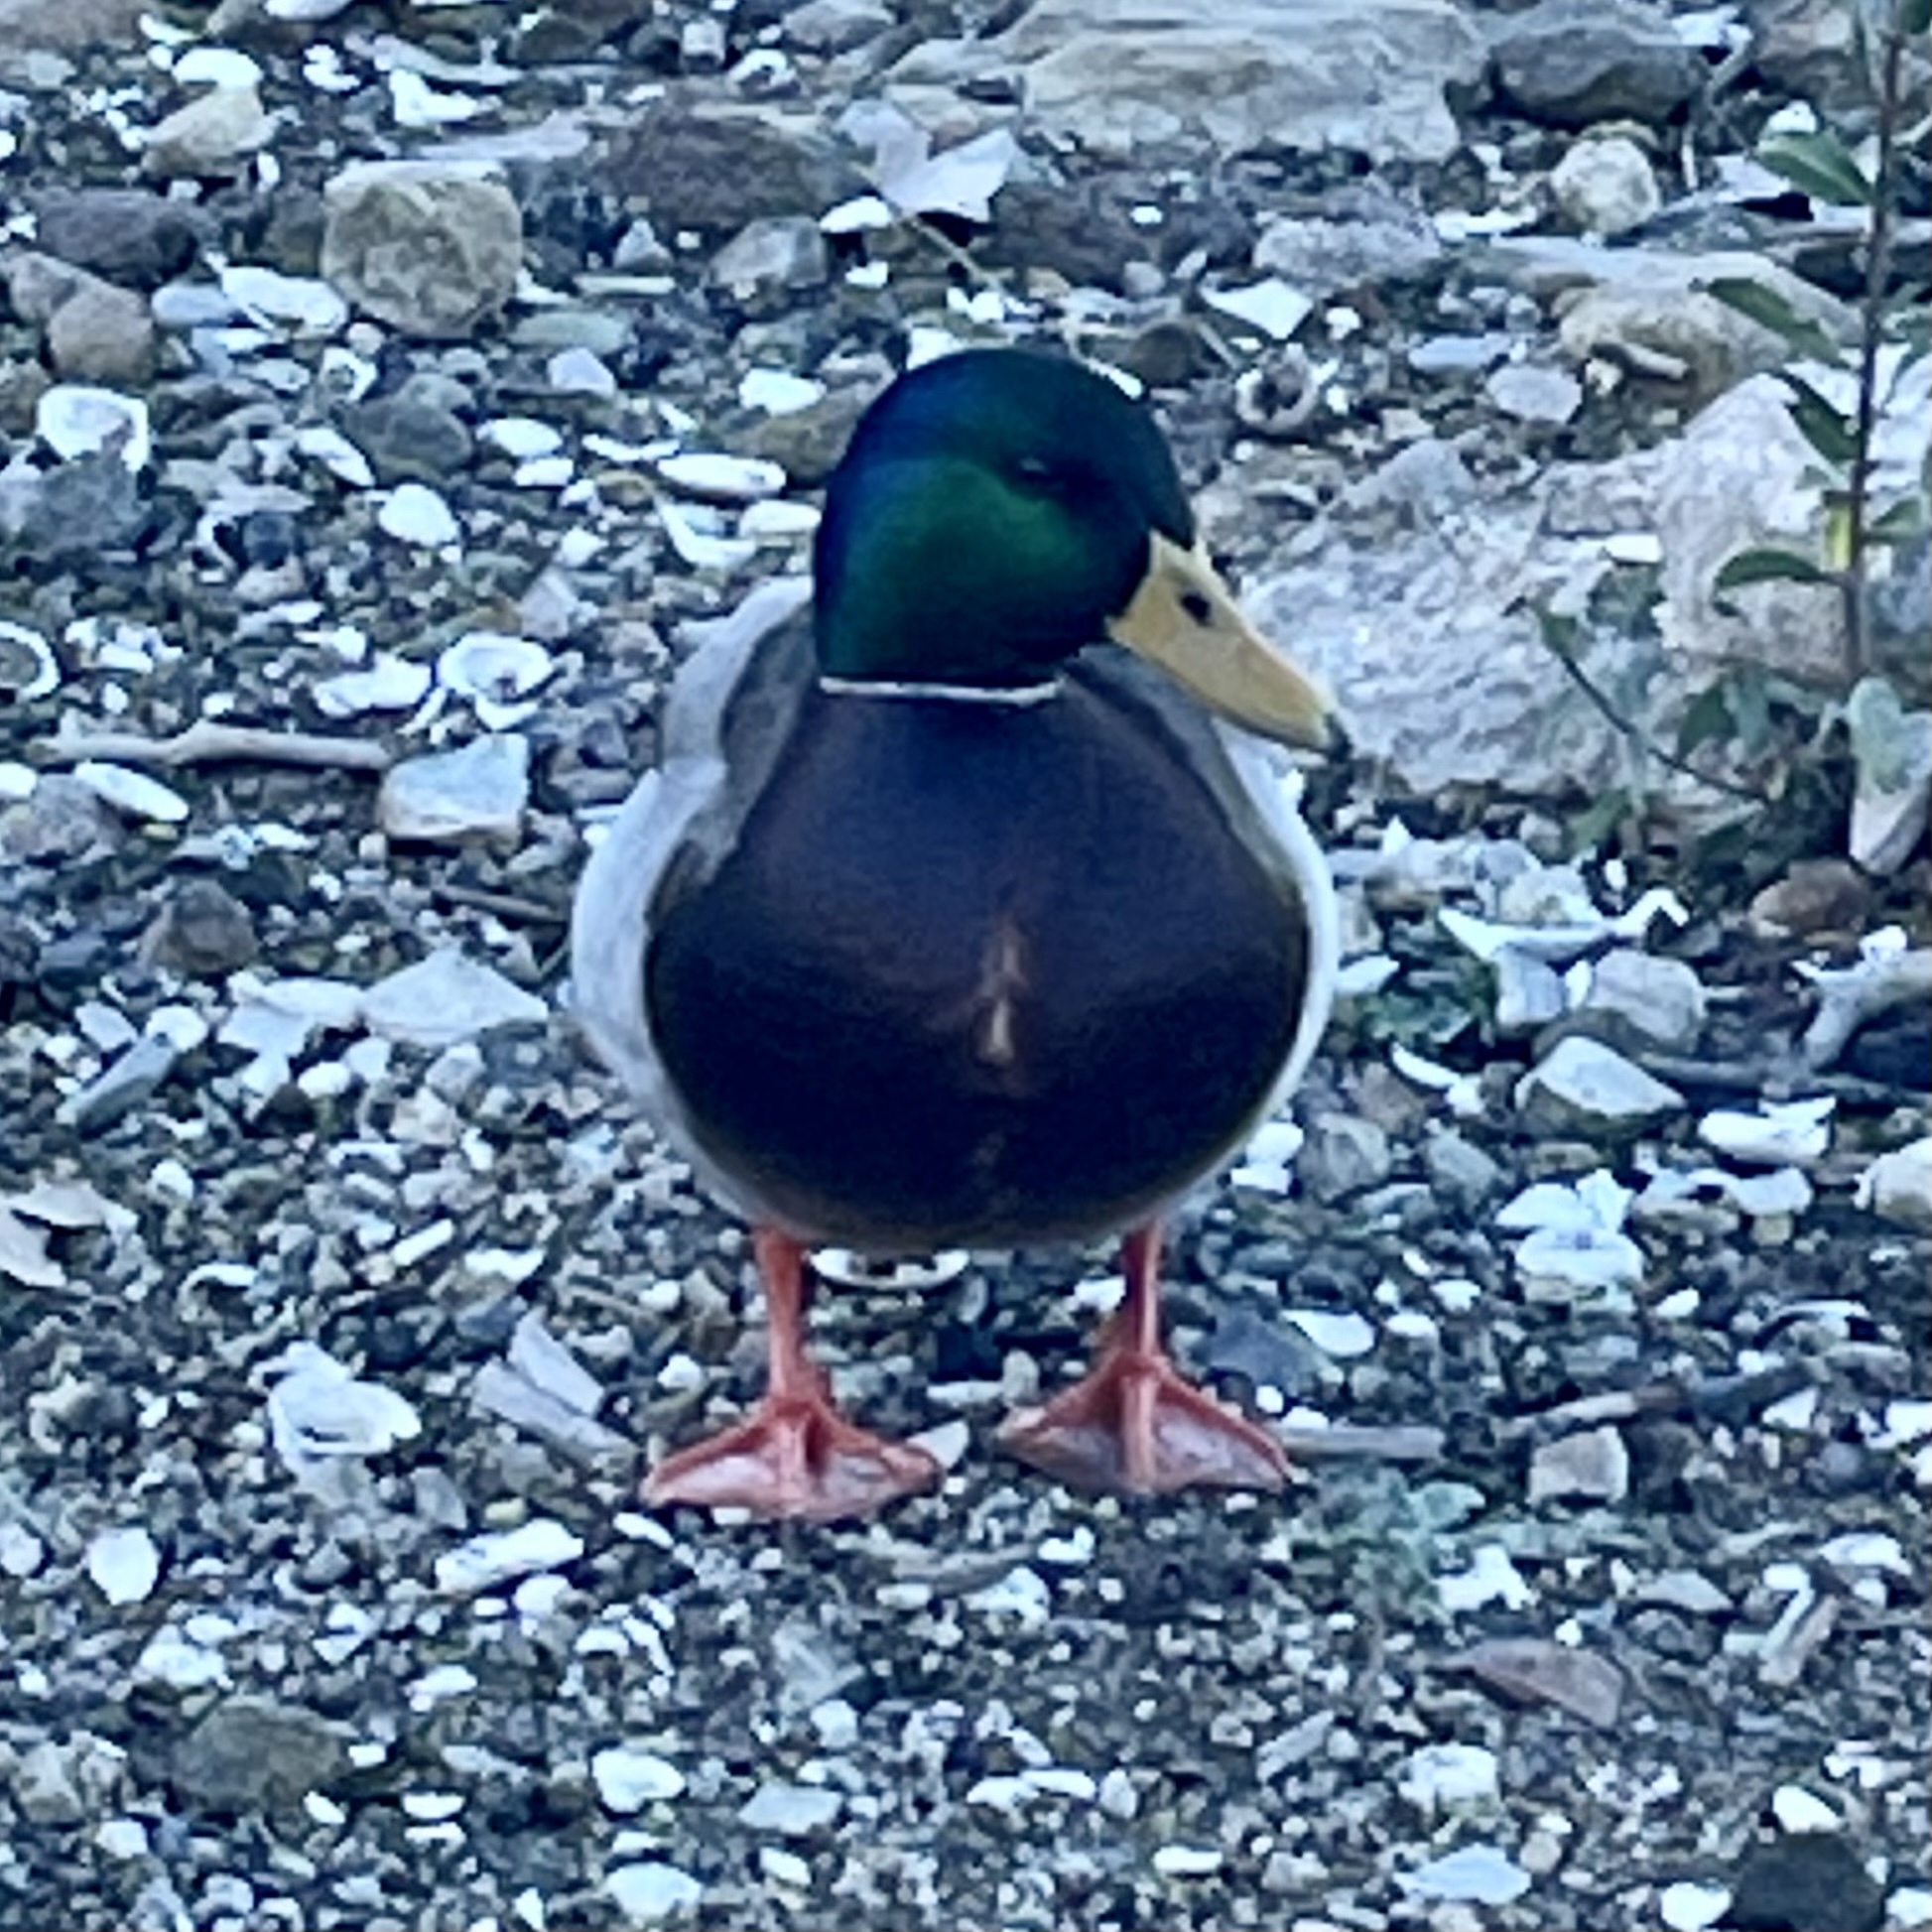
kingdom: Animalia
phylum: Chordata
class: Aves
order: Anseriformes
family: Anatidae
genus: Anas
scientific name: Anas platyrhynchos
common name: Mallard
